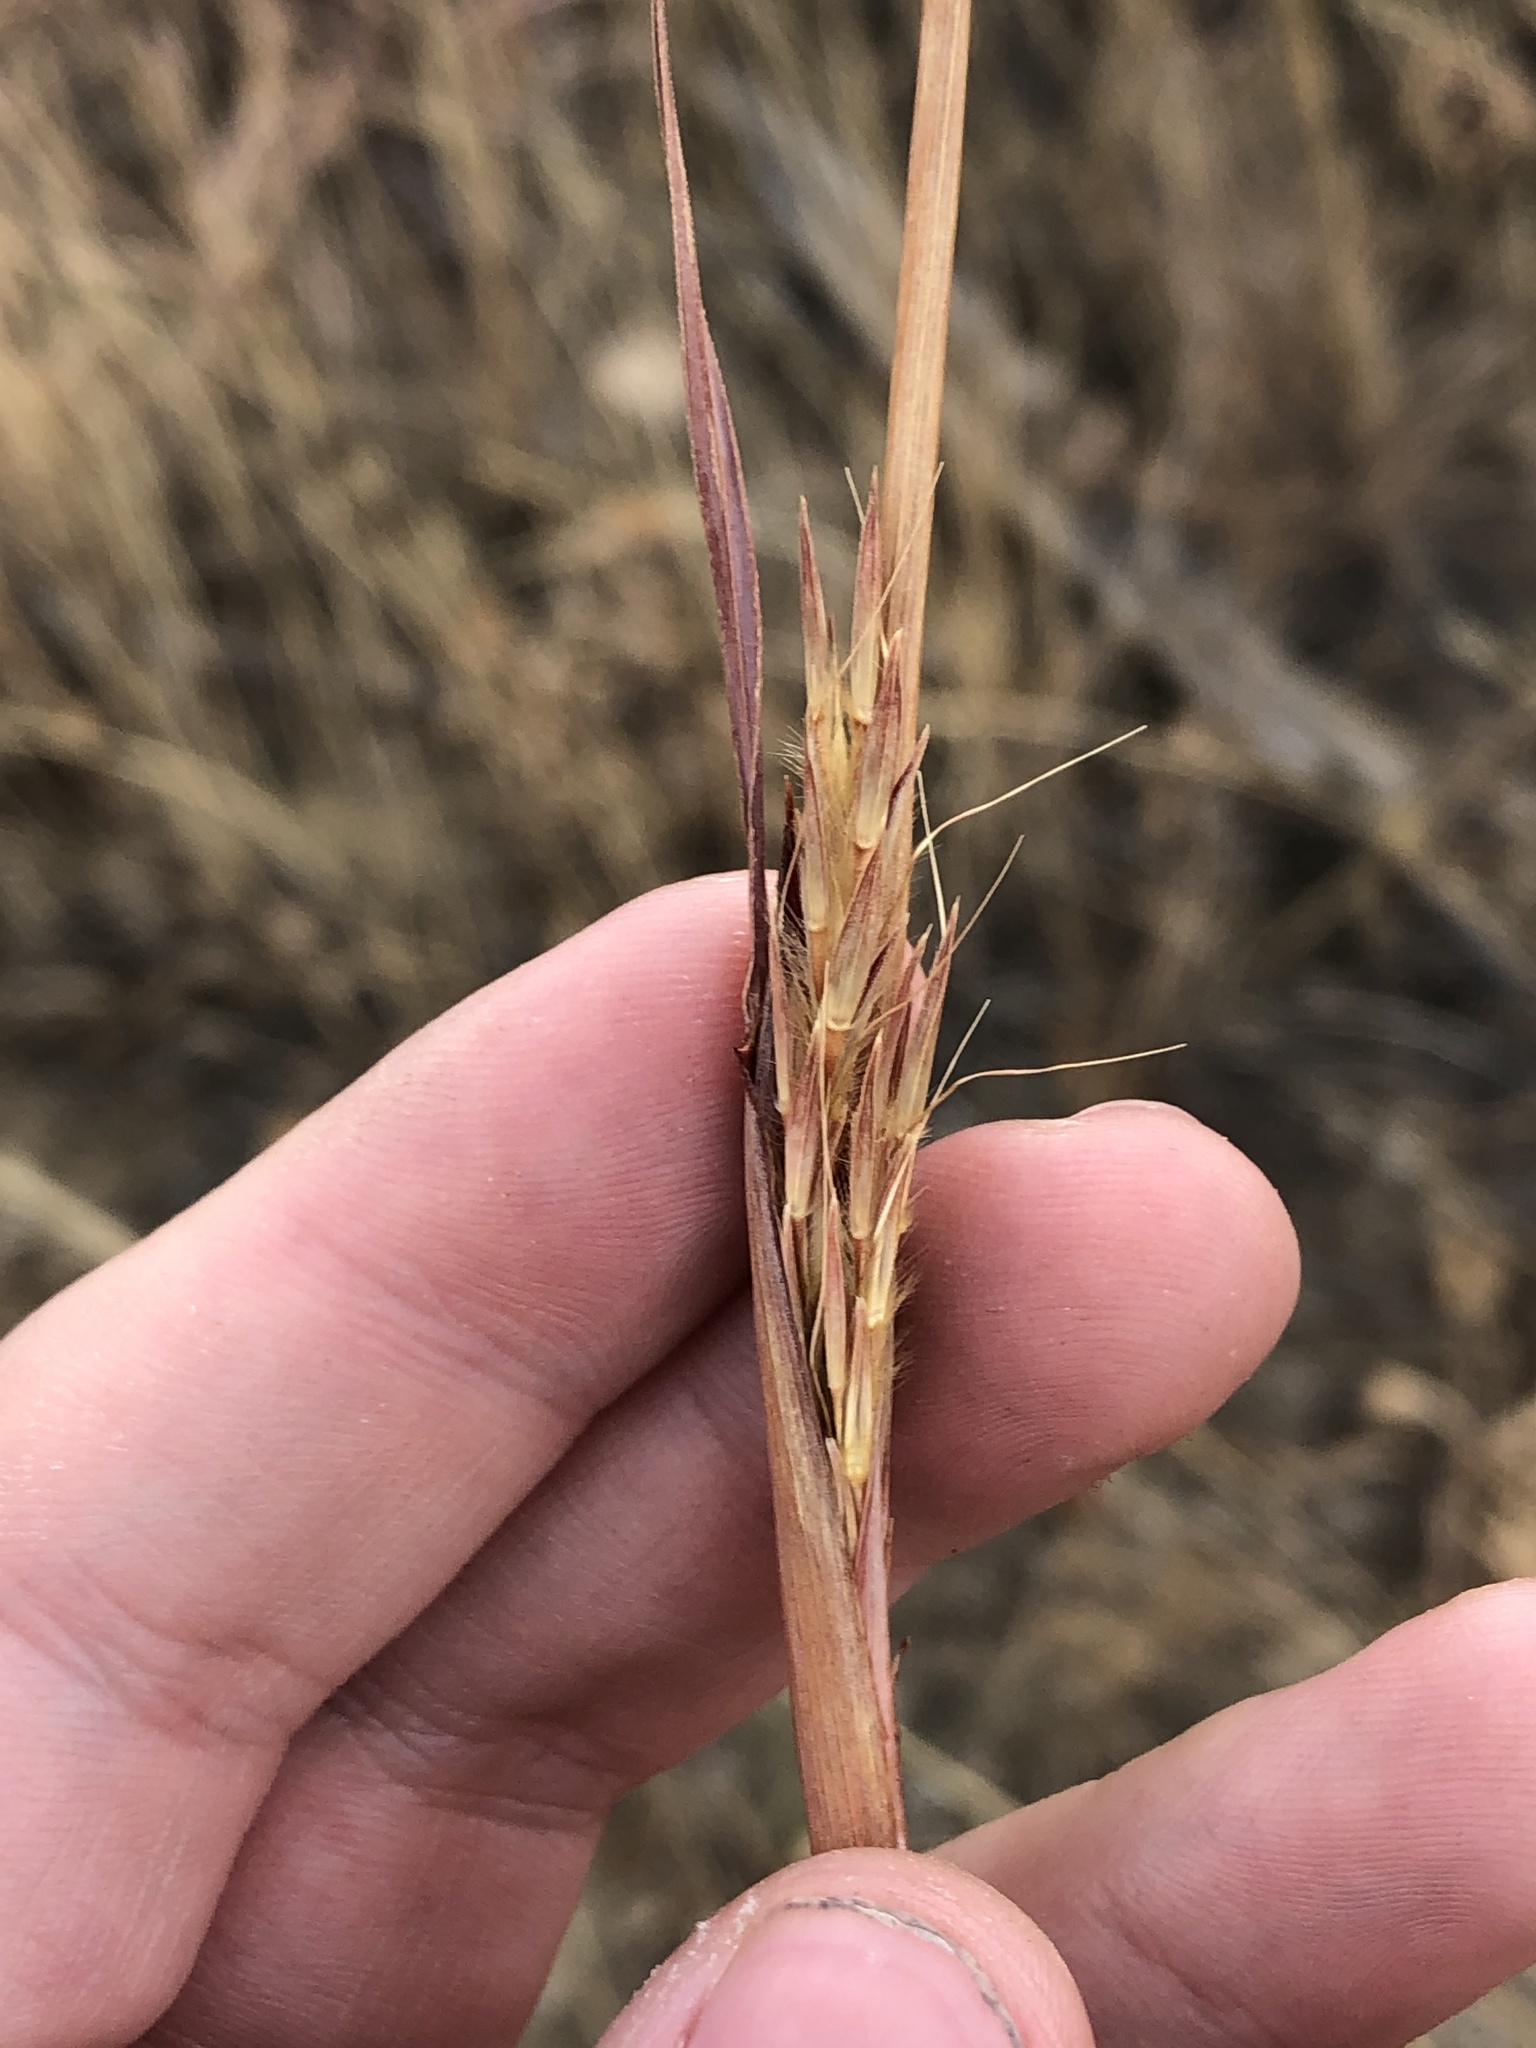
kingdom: Plantae
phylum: Tracheophyta
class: Liliopsida
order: Poales
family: Poaceae
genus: Andropogon
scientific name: Andropogon gerardi
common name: Big bluestem
